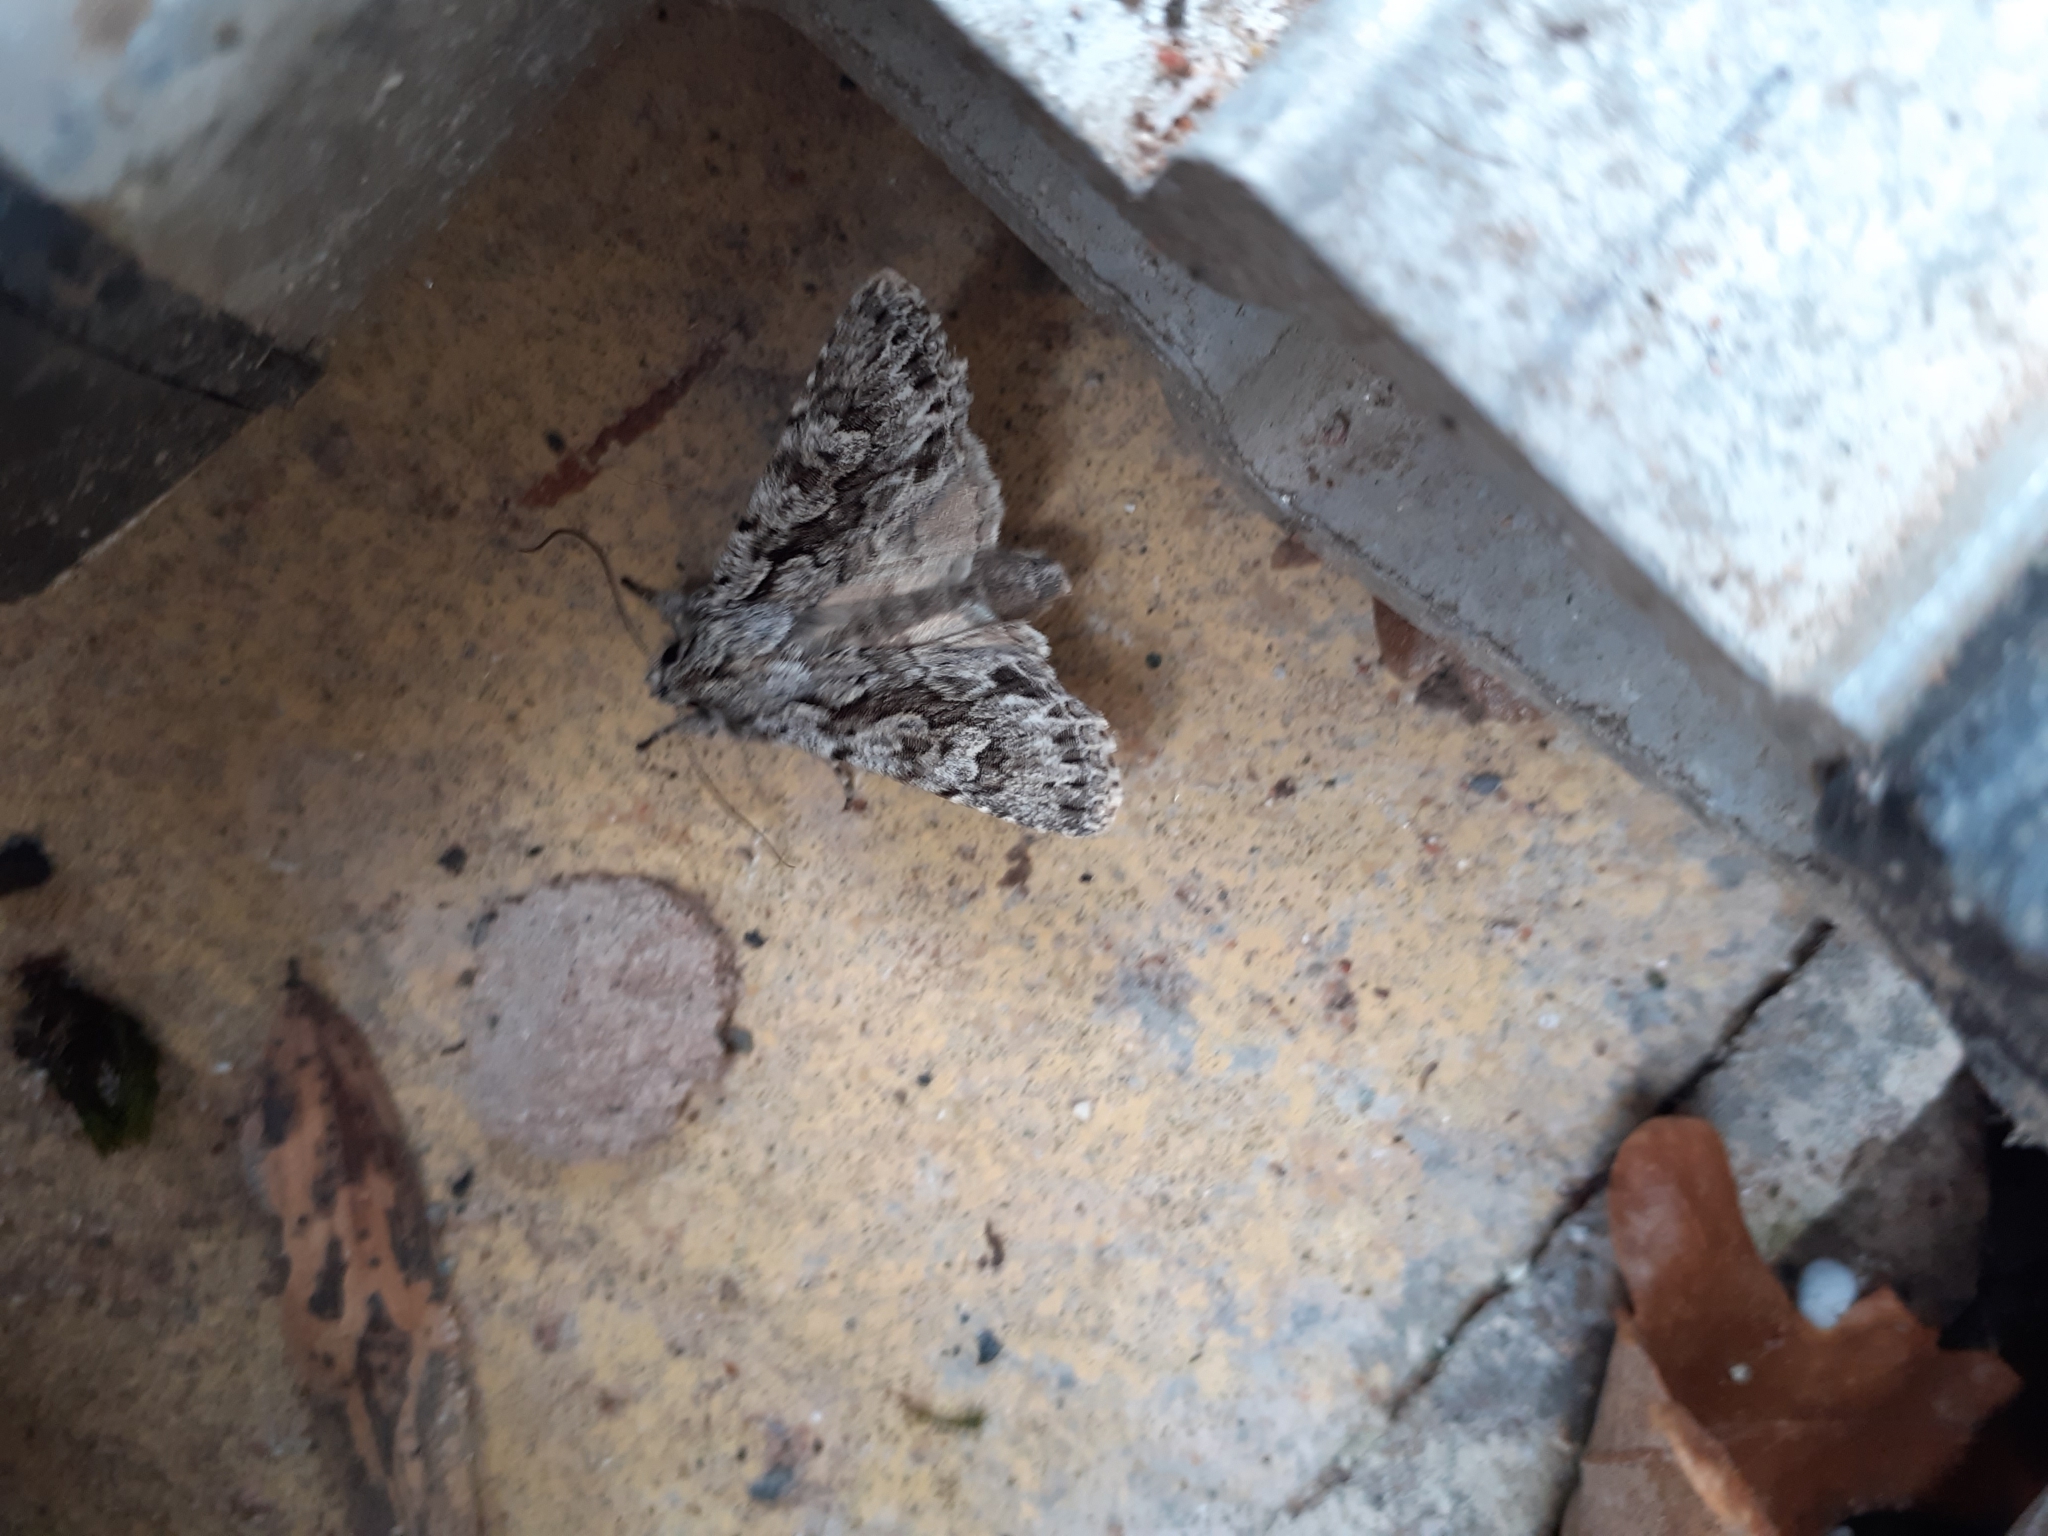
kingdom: Animalia
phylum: Arthropoda
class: Insecta
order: Lepidoptera
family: Noctuidae
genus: Xylocampa
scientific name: Xylocampa areola
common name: Early grey
